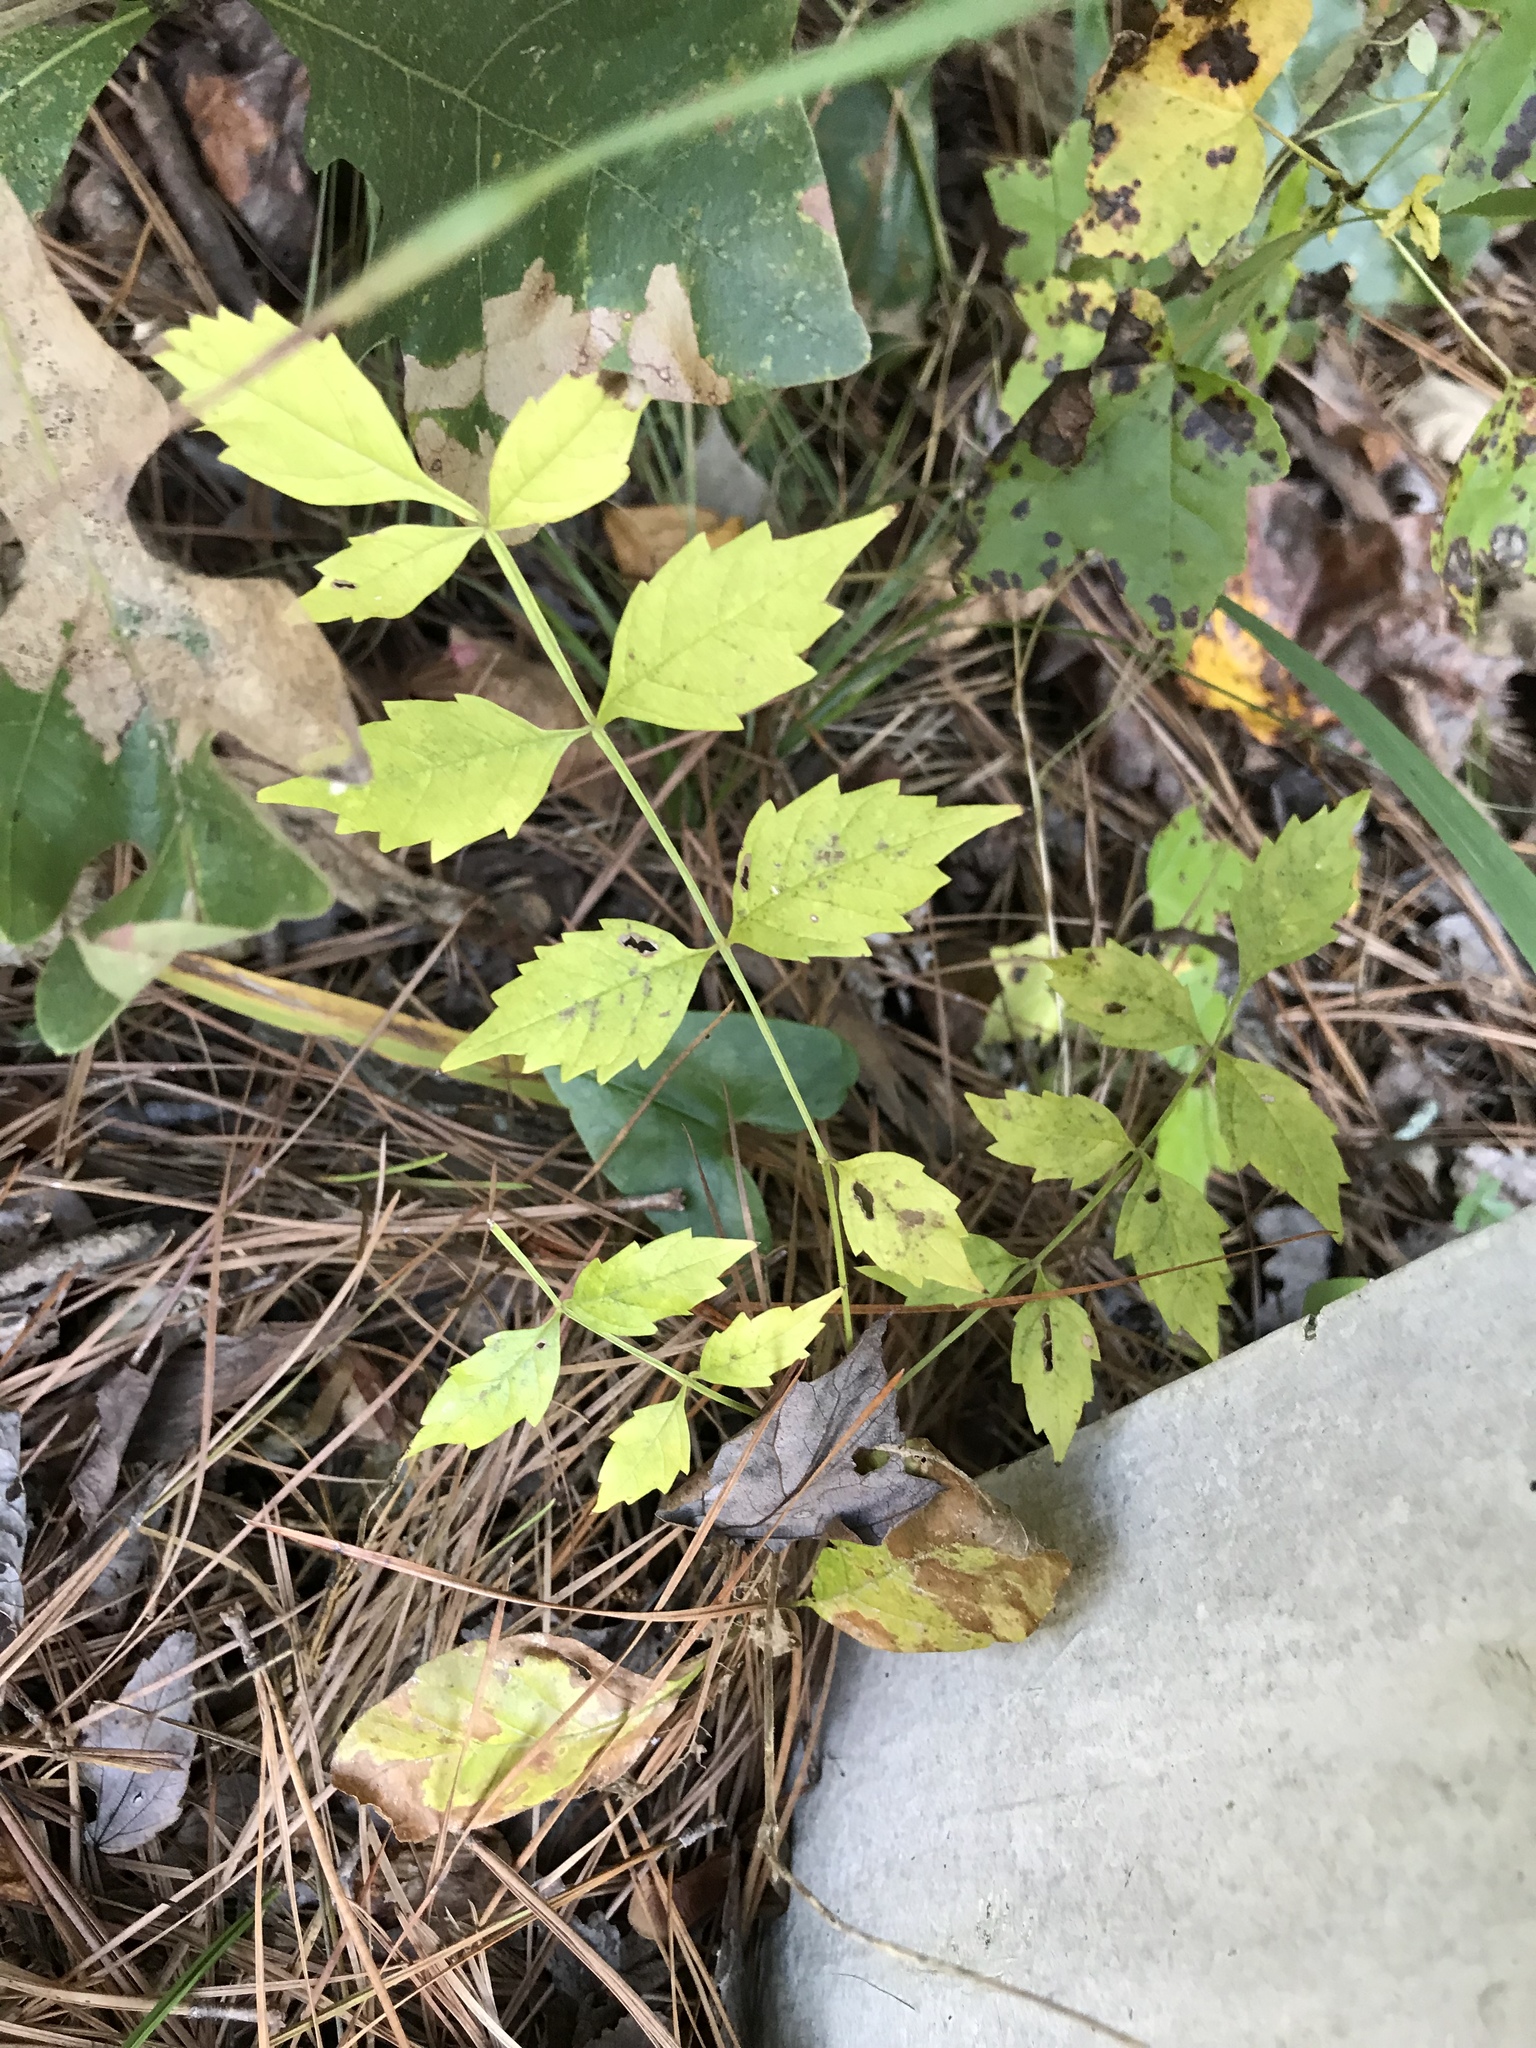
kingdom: Plantae
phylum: Tracheophyta
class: Magnoliopsida
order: Lamiales
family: Bignoniaceae
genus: Campsis
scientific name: Campsis radicans
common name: Trumpet-creeper
